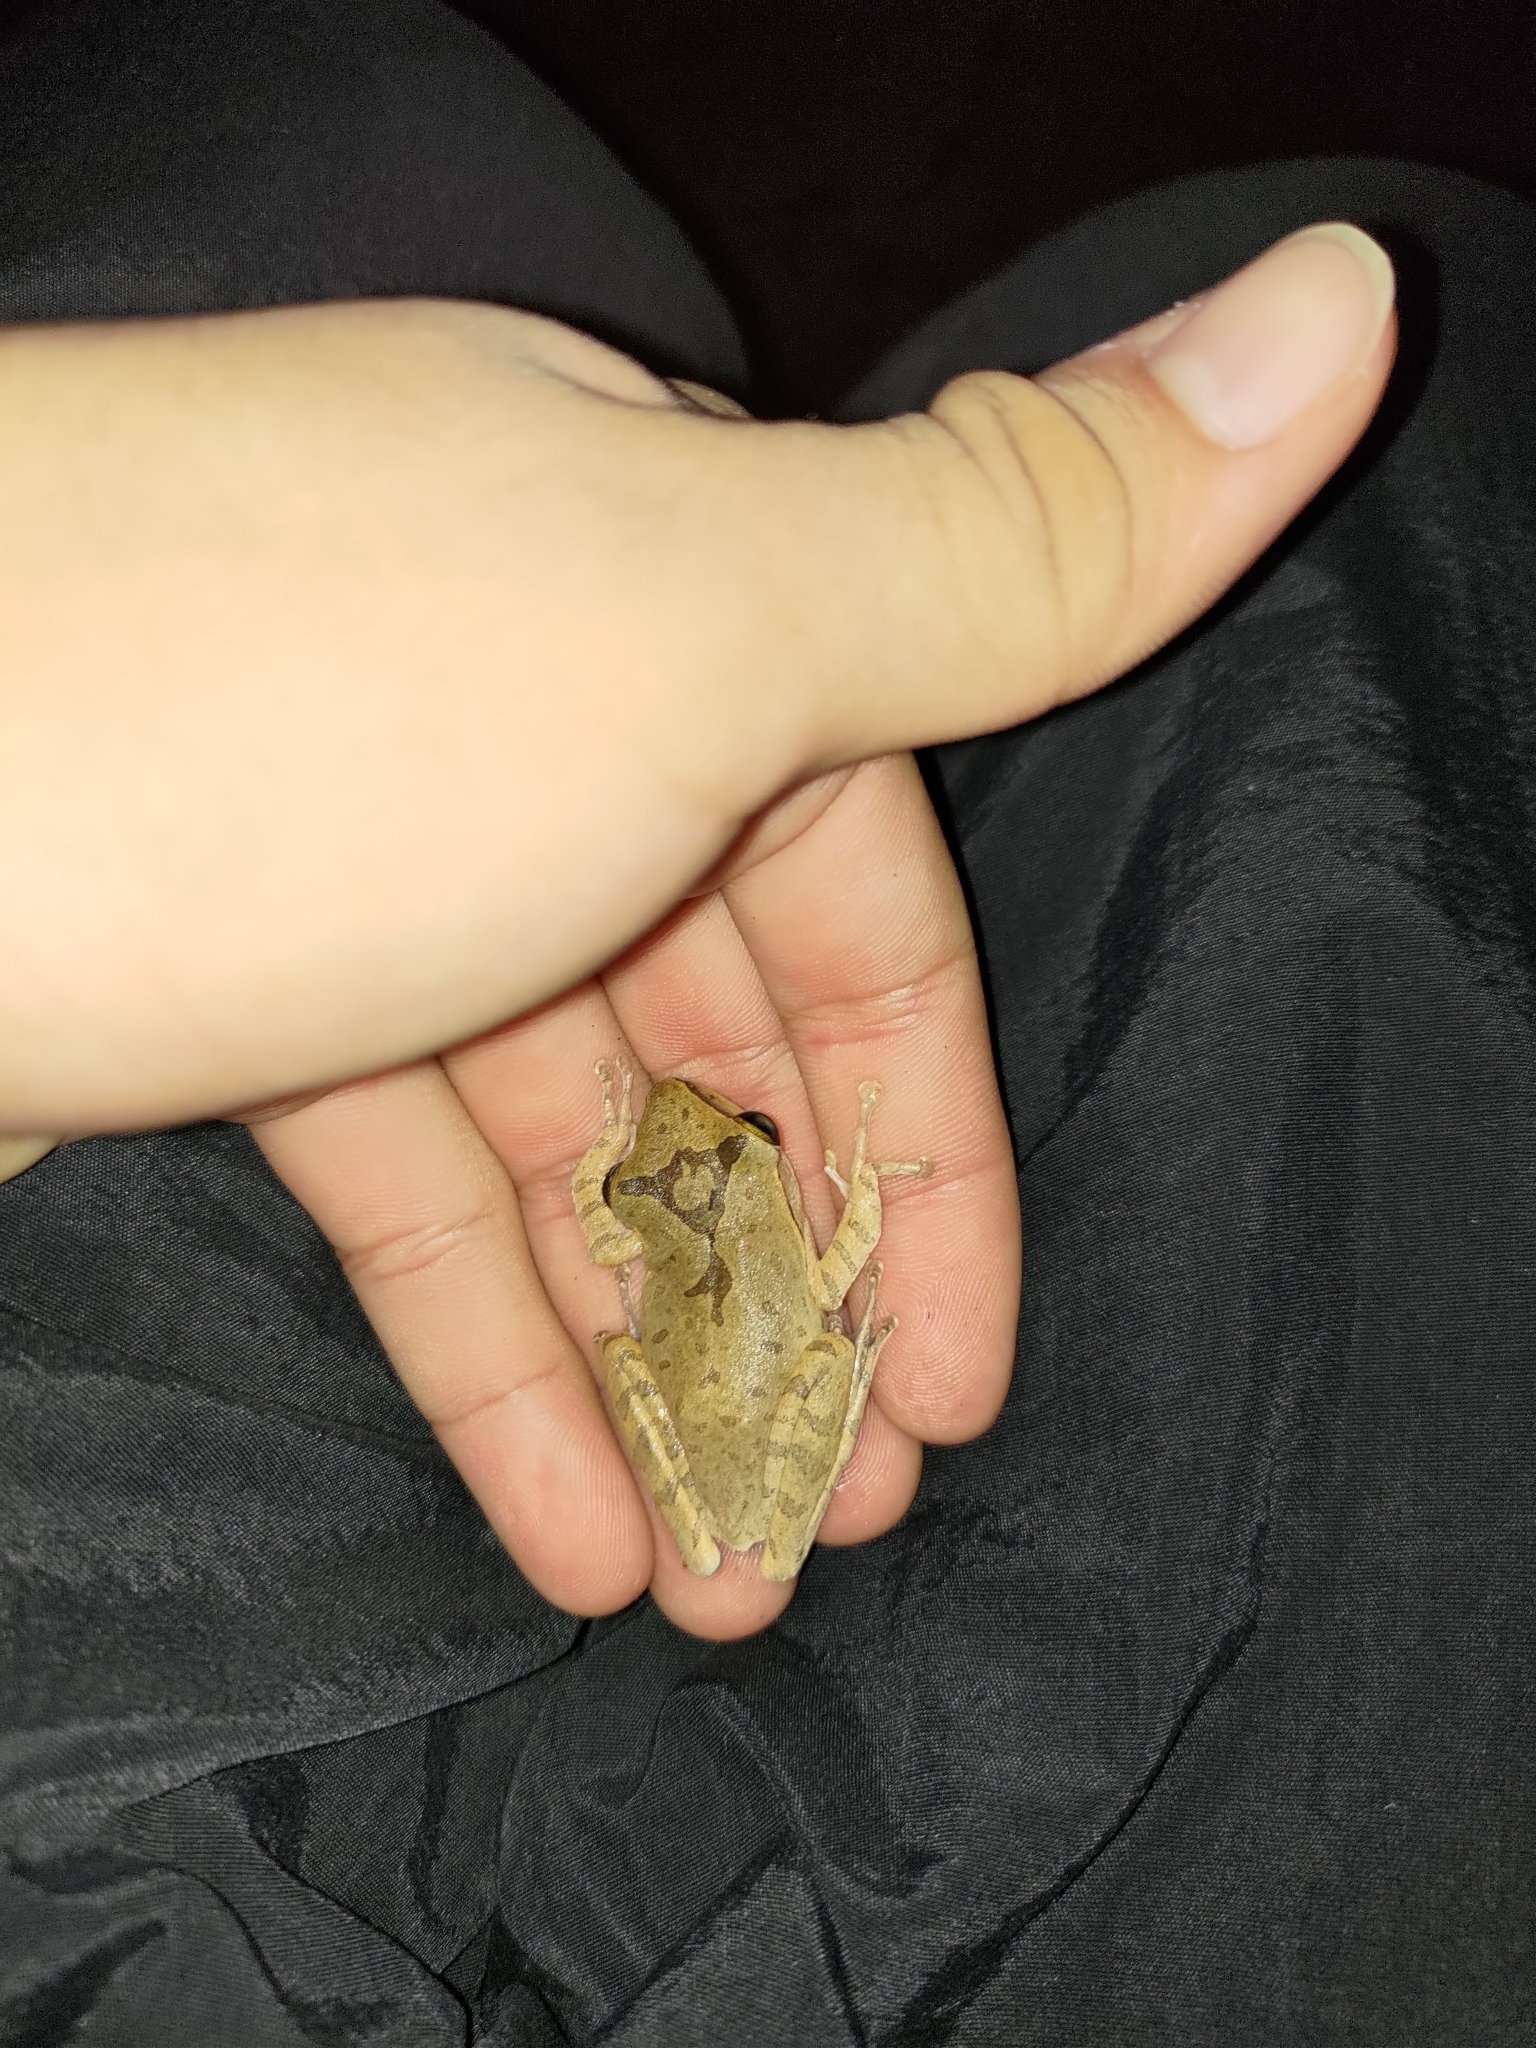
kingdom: Animalia
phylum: Chordata
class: Amphibia
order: Anura
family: Rhacophoridae
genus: Polypedates
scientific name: Polypedates megacephalus
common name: Hong kong whipping frog
